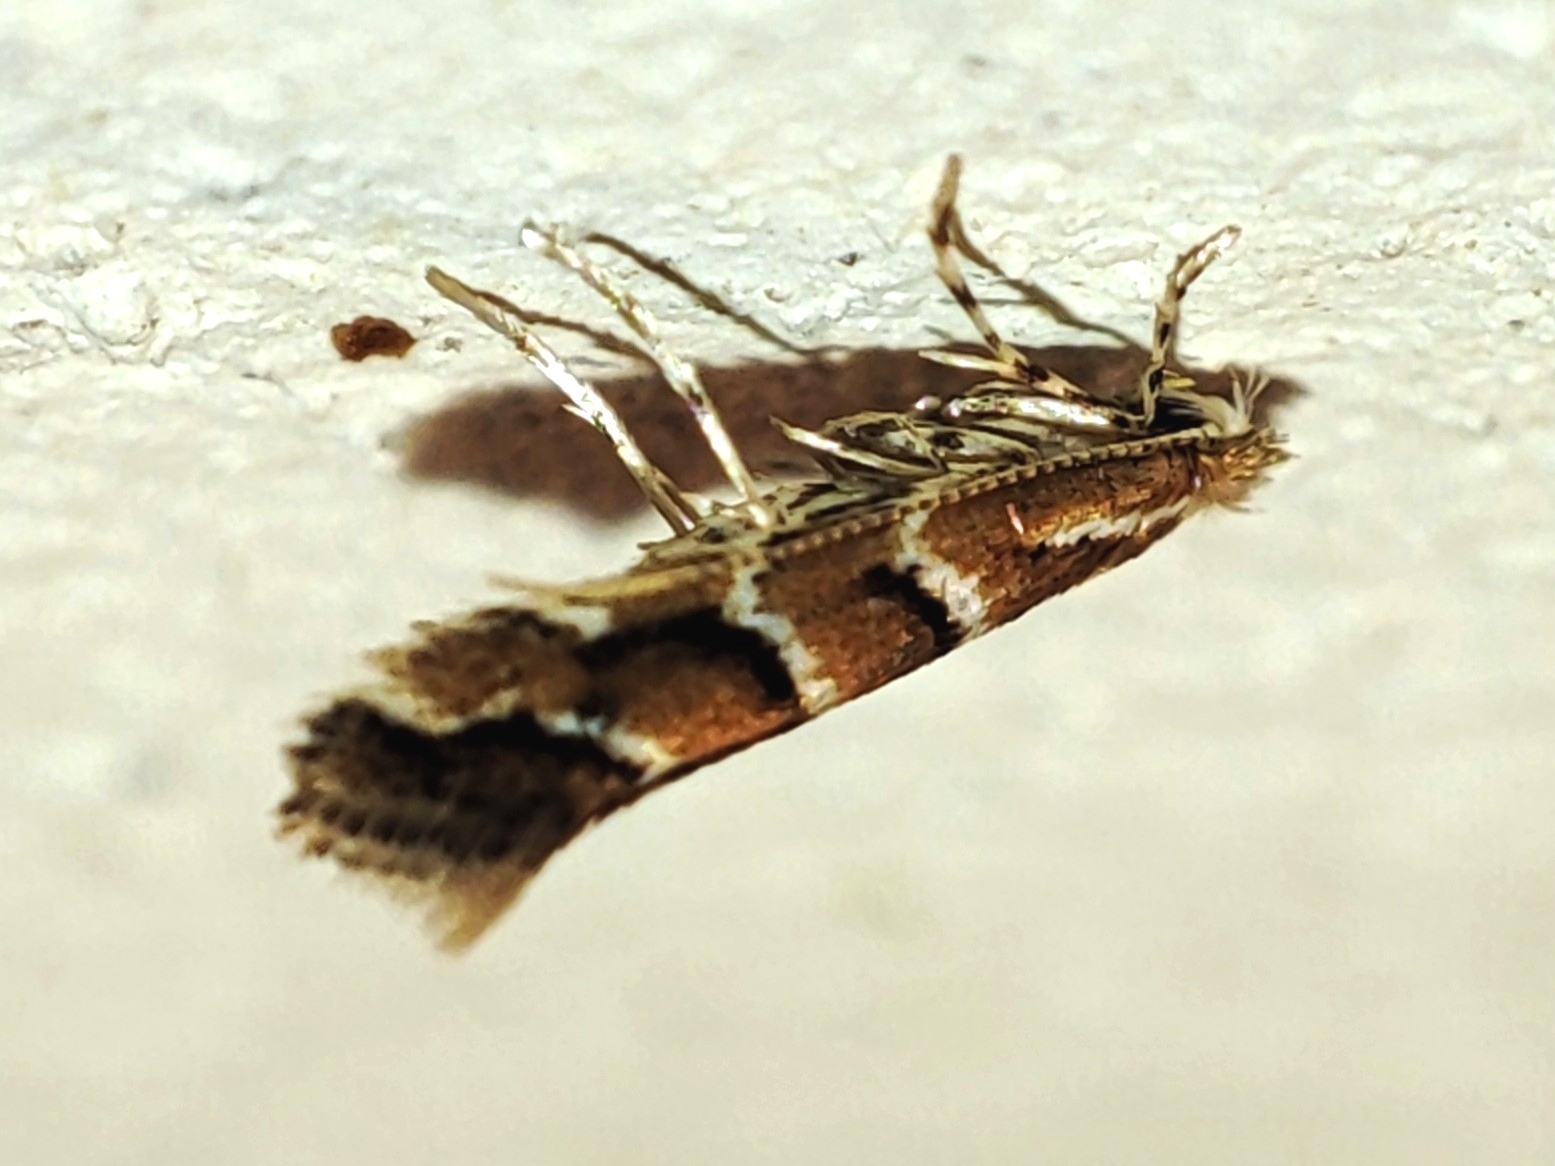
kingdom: Animalia
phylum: Arthropoda
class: Insecta
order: Lepidoptera
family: Gracillariidae
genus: Cameraria
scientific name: Cameraria ohridella
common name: Horse-chestnut leaf-miner
